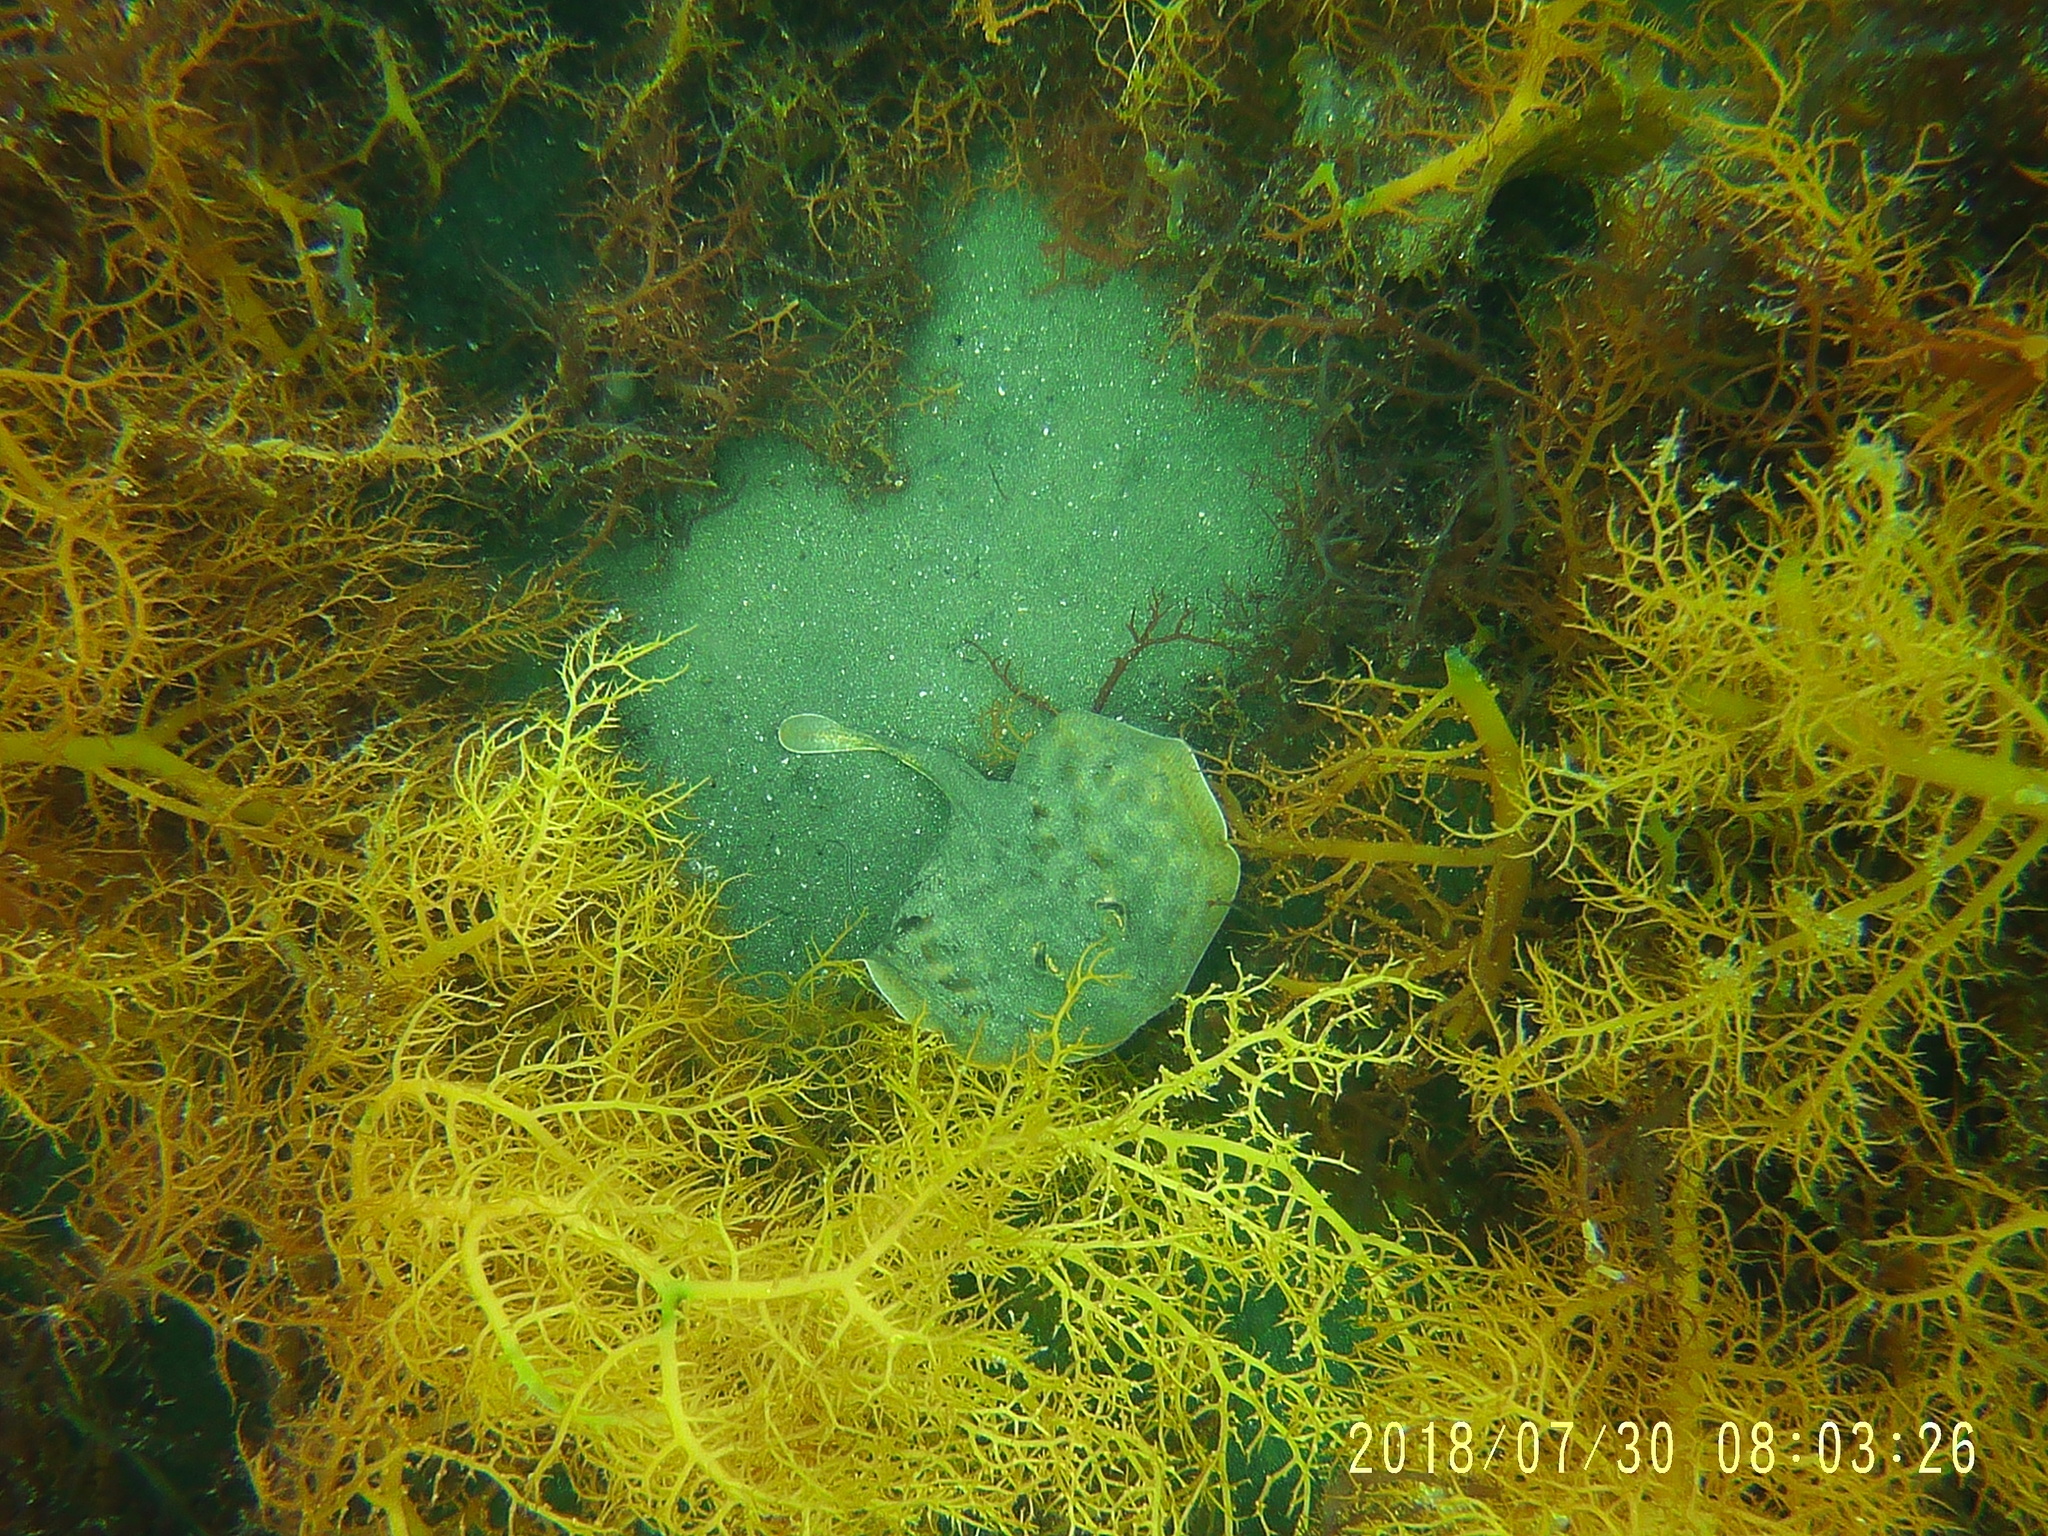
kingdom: Animalia
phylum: Chordata
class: Elasmobranchii
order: Myliobatiformes
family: Urotrygonidae
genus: Urobatis
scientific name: Urobatis maculatus
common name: Cortez round stingray
